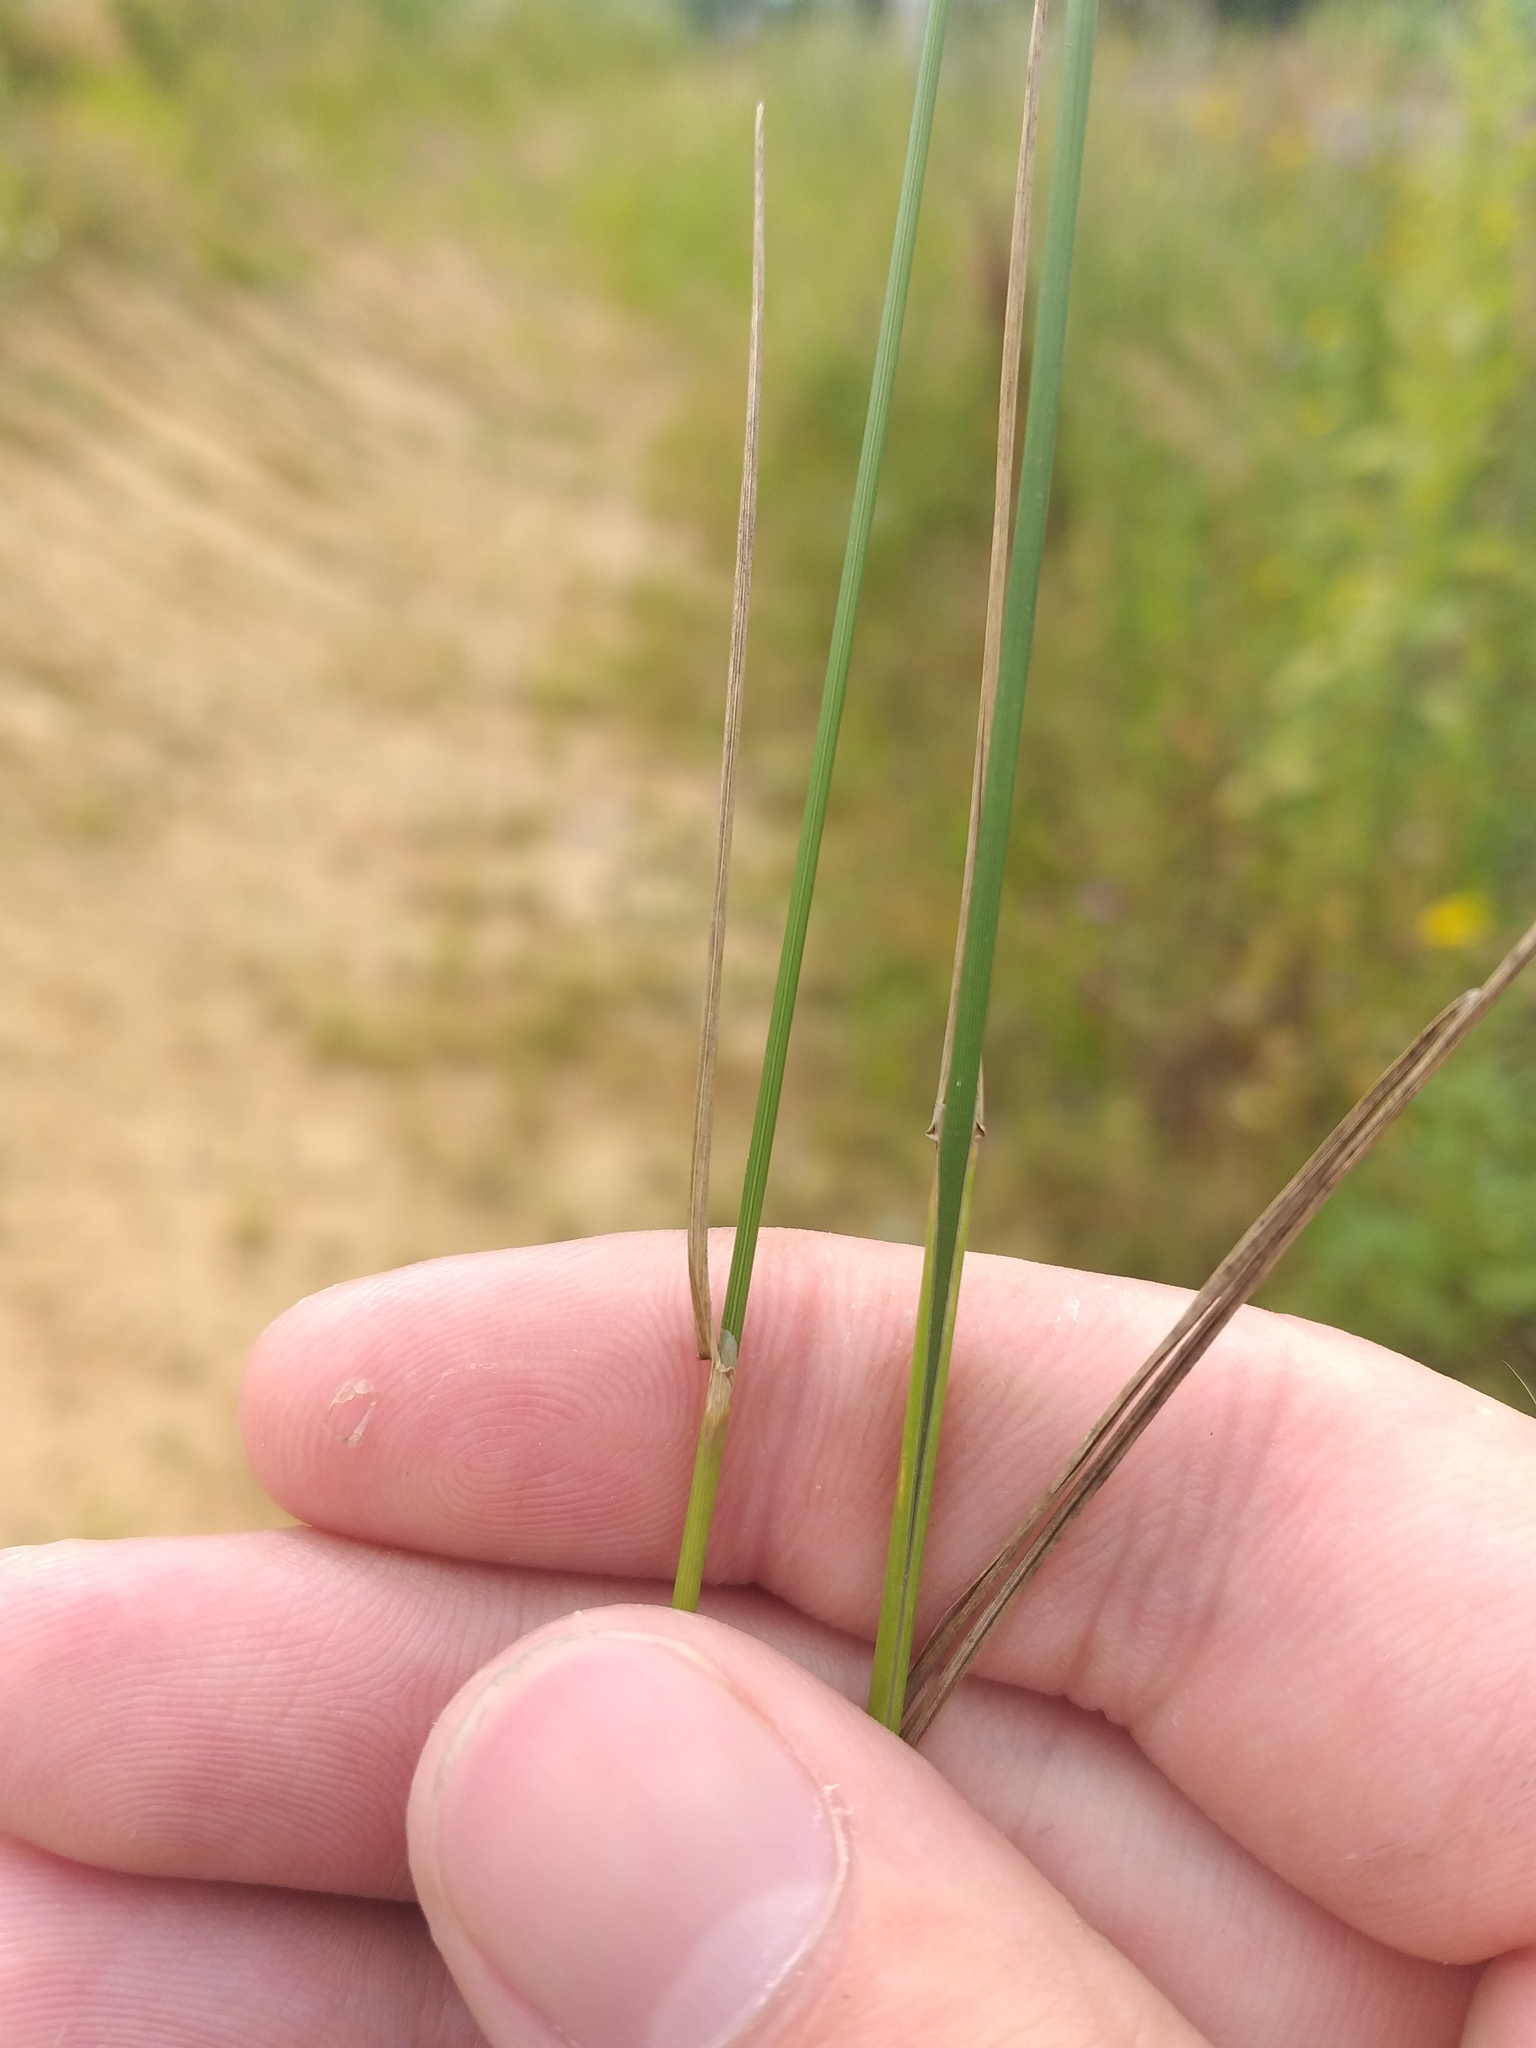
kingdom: Plantae
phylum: Tracheophyta
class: Liliopsida
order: Poales
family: Poaceae
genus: Agrostis
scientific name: Agrostis gigantea
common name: Black bent
